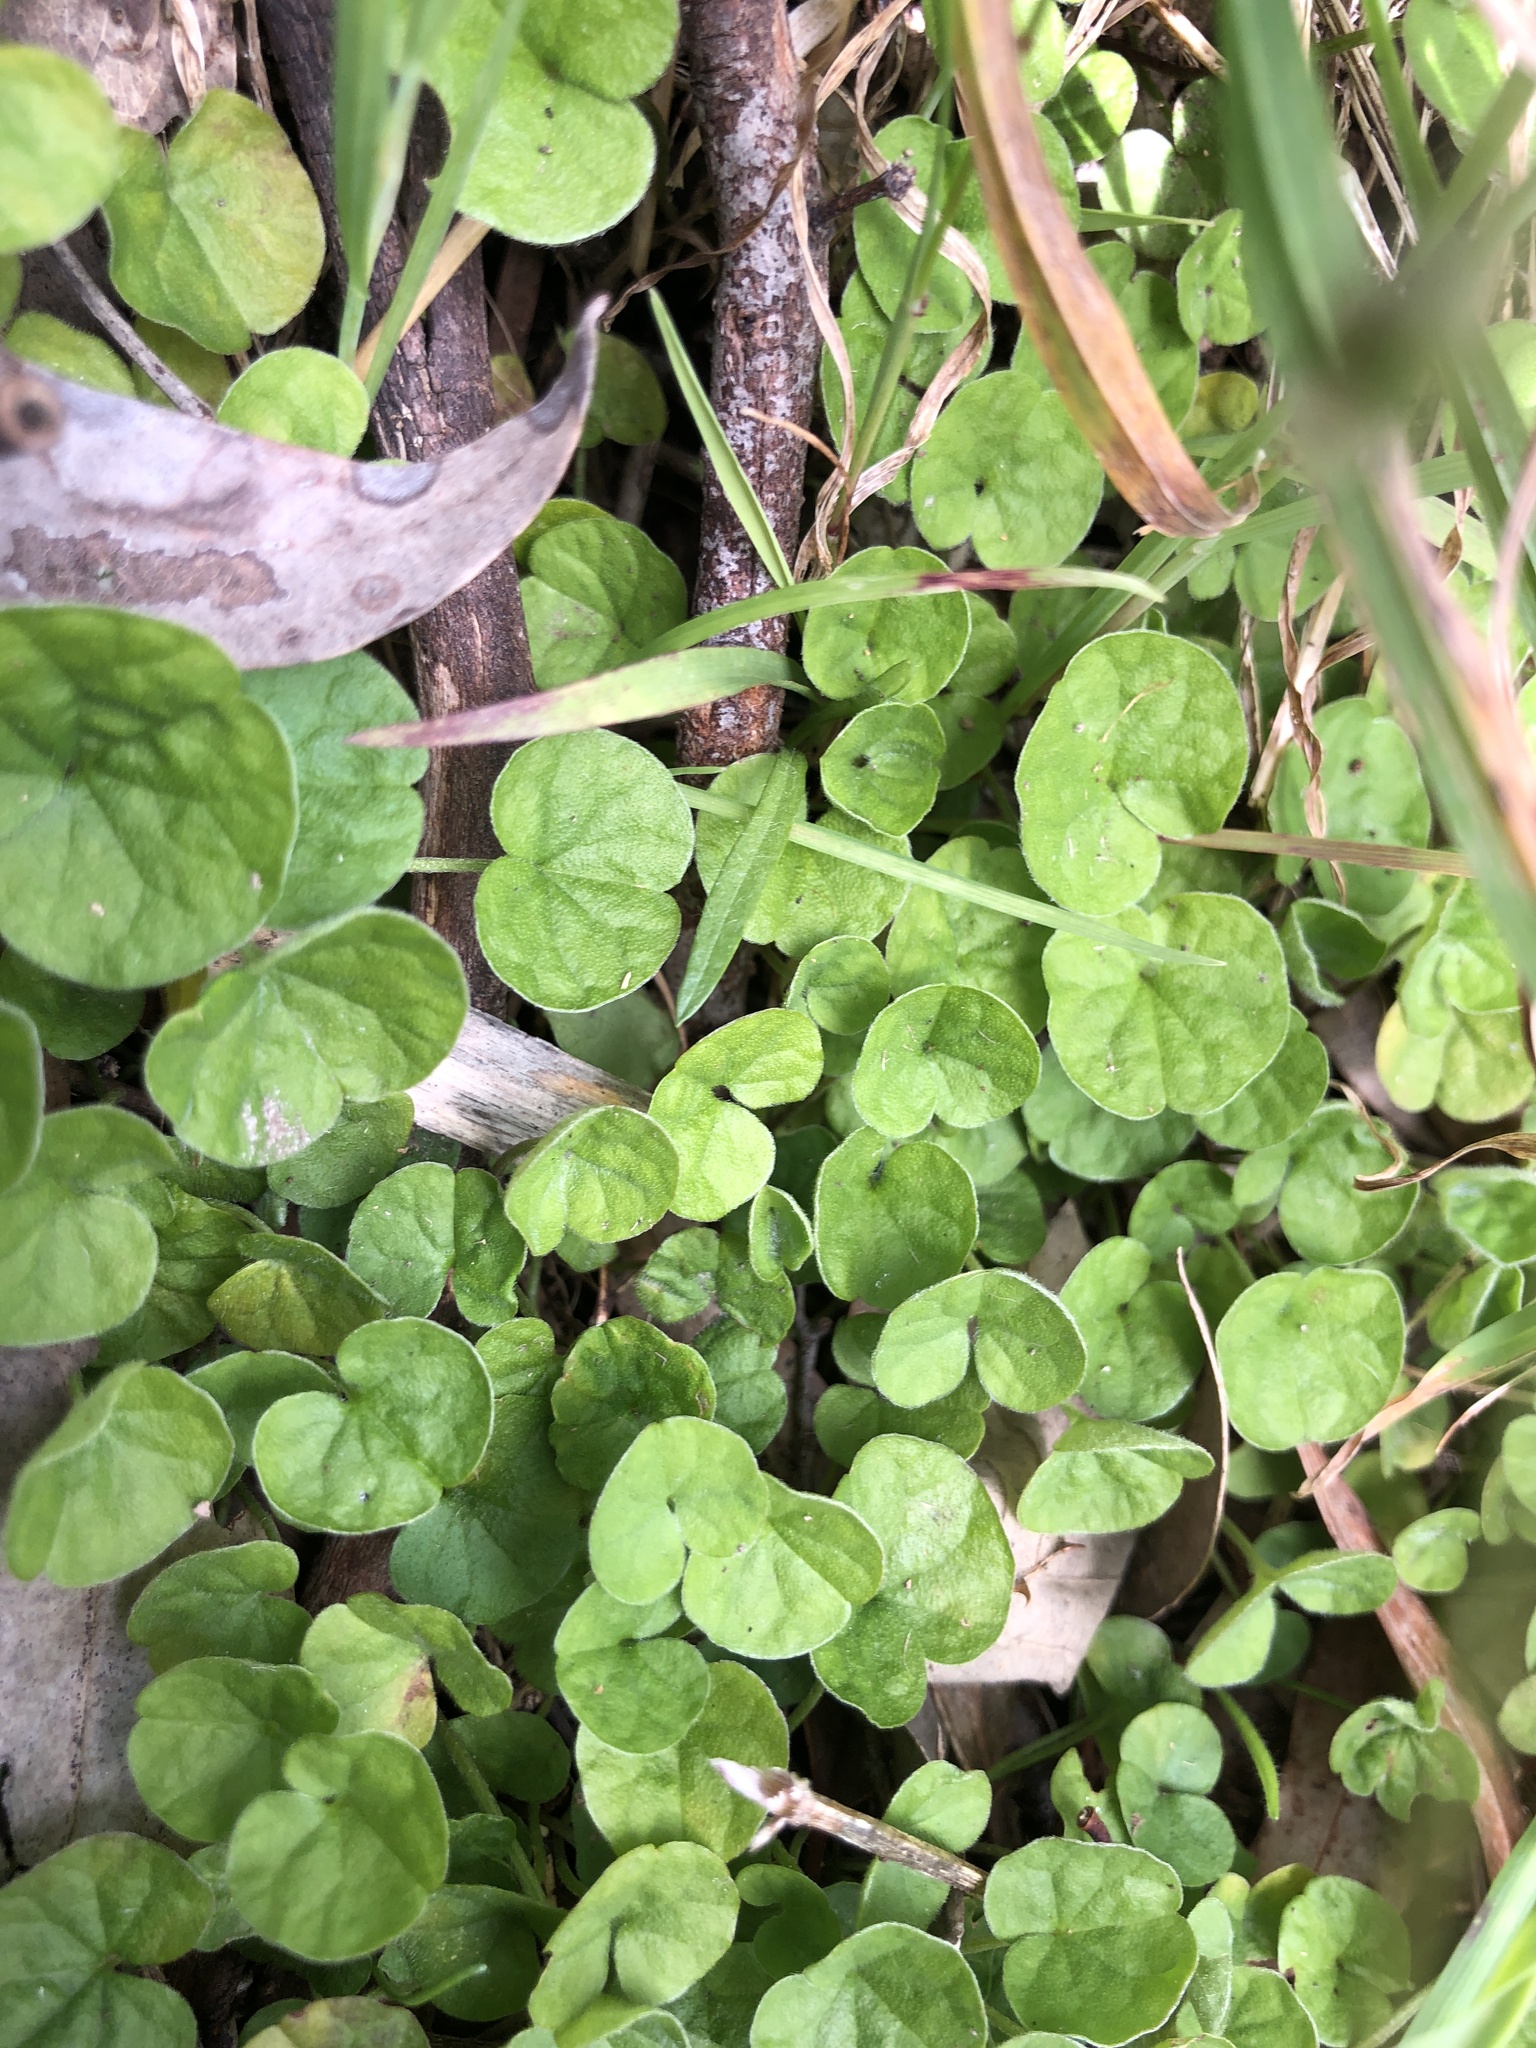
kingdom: Plantae
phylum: Tracheophyta
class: Magnoliopsida
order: Solanales
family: Convolvulaceae
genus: Dichondra
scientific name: Dichondra repens
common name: Kidneyweed
